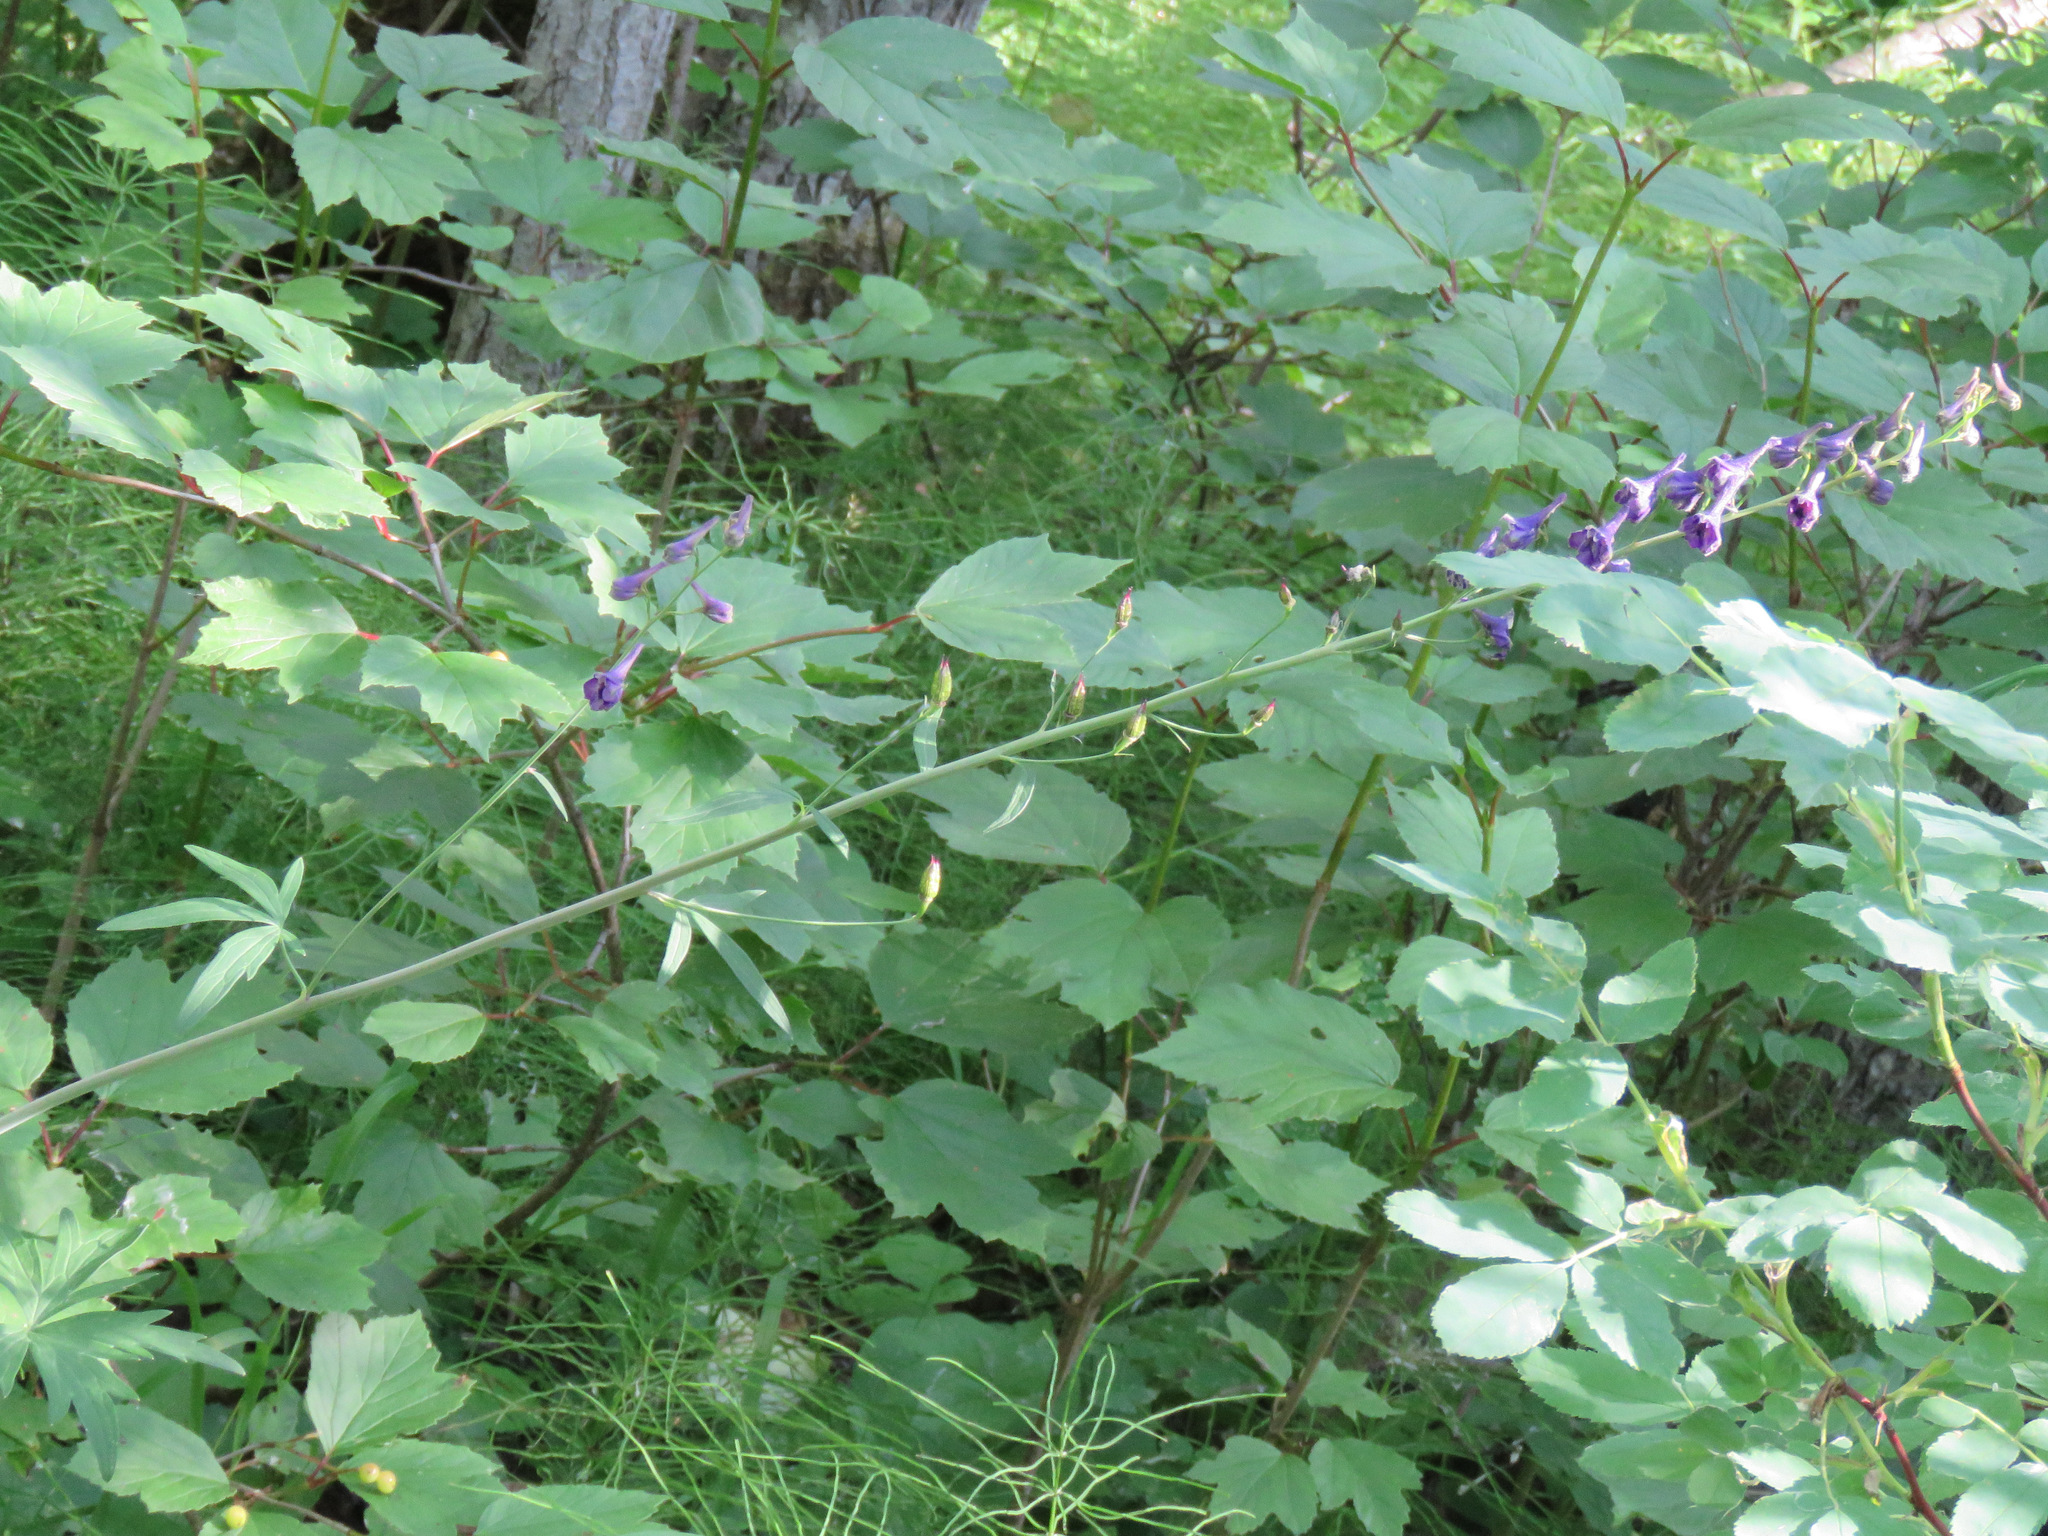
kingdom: Plantae
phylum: Tracheophyta
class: Magnoliopsida
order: Ranunculales
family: Ranunculaceae
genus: Delphinium
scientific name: Delphinium glaucum
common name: Brown's larkspur
